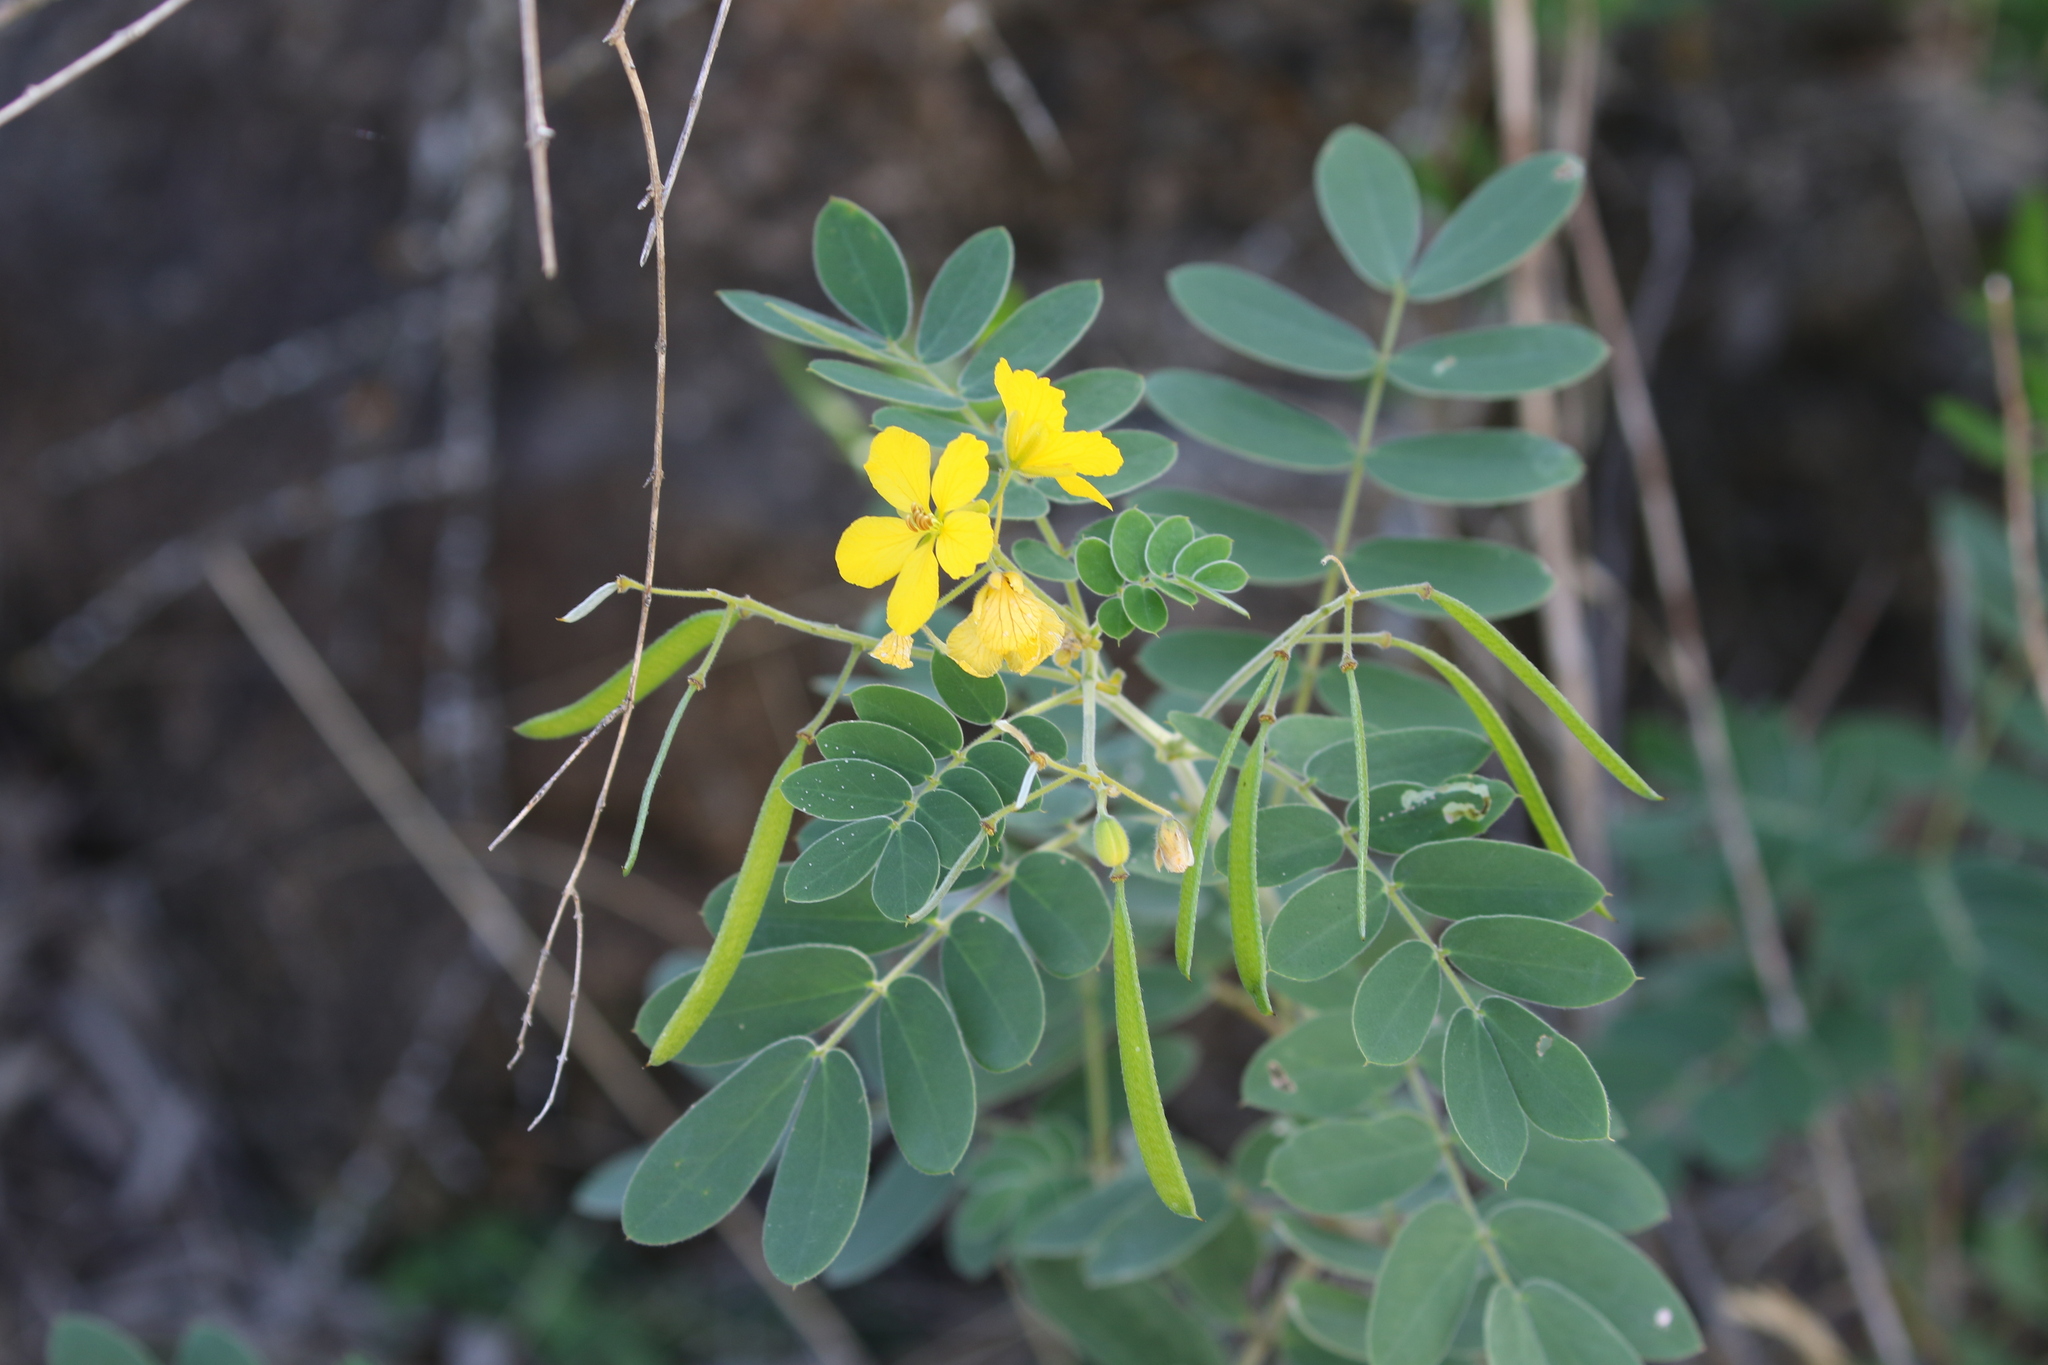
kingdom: Plantae
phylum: Tracheophyta
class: Magnoliopsida
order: Fabales
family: Fabaceae
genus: Senna
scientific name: Senna lindheimeriana
